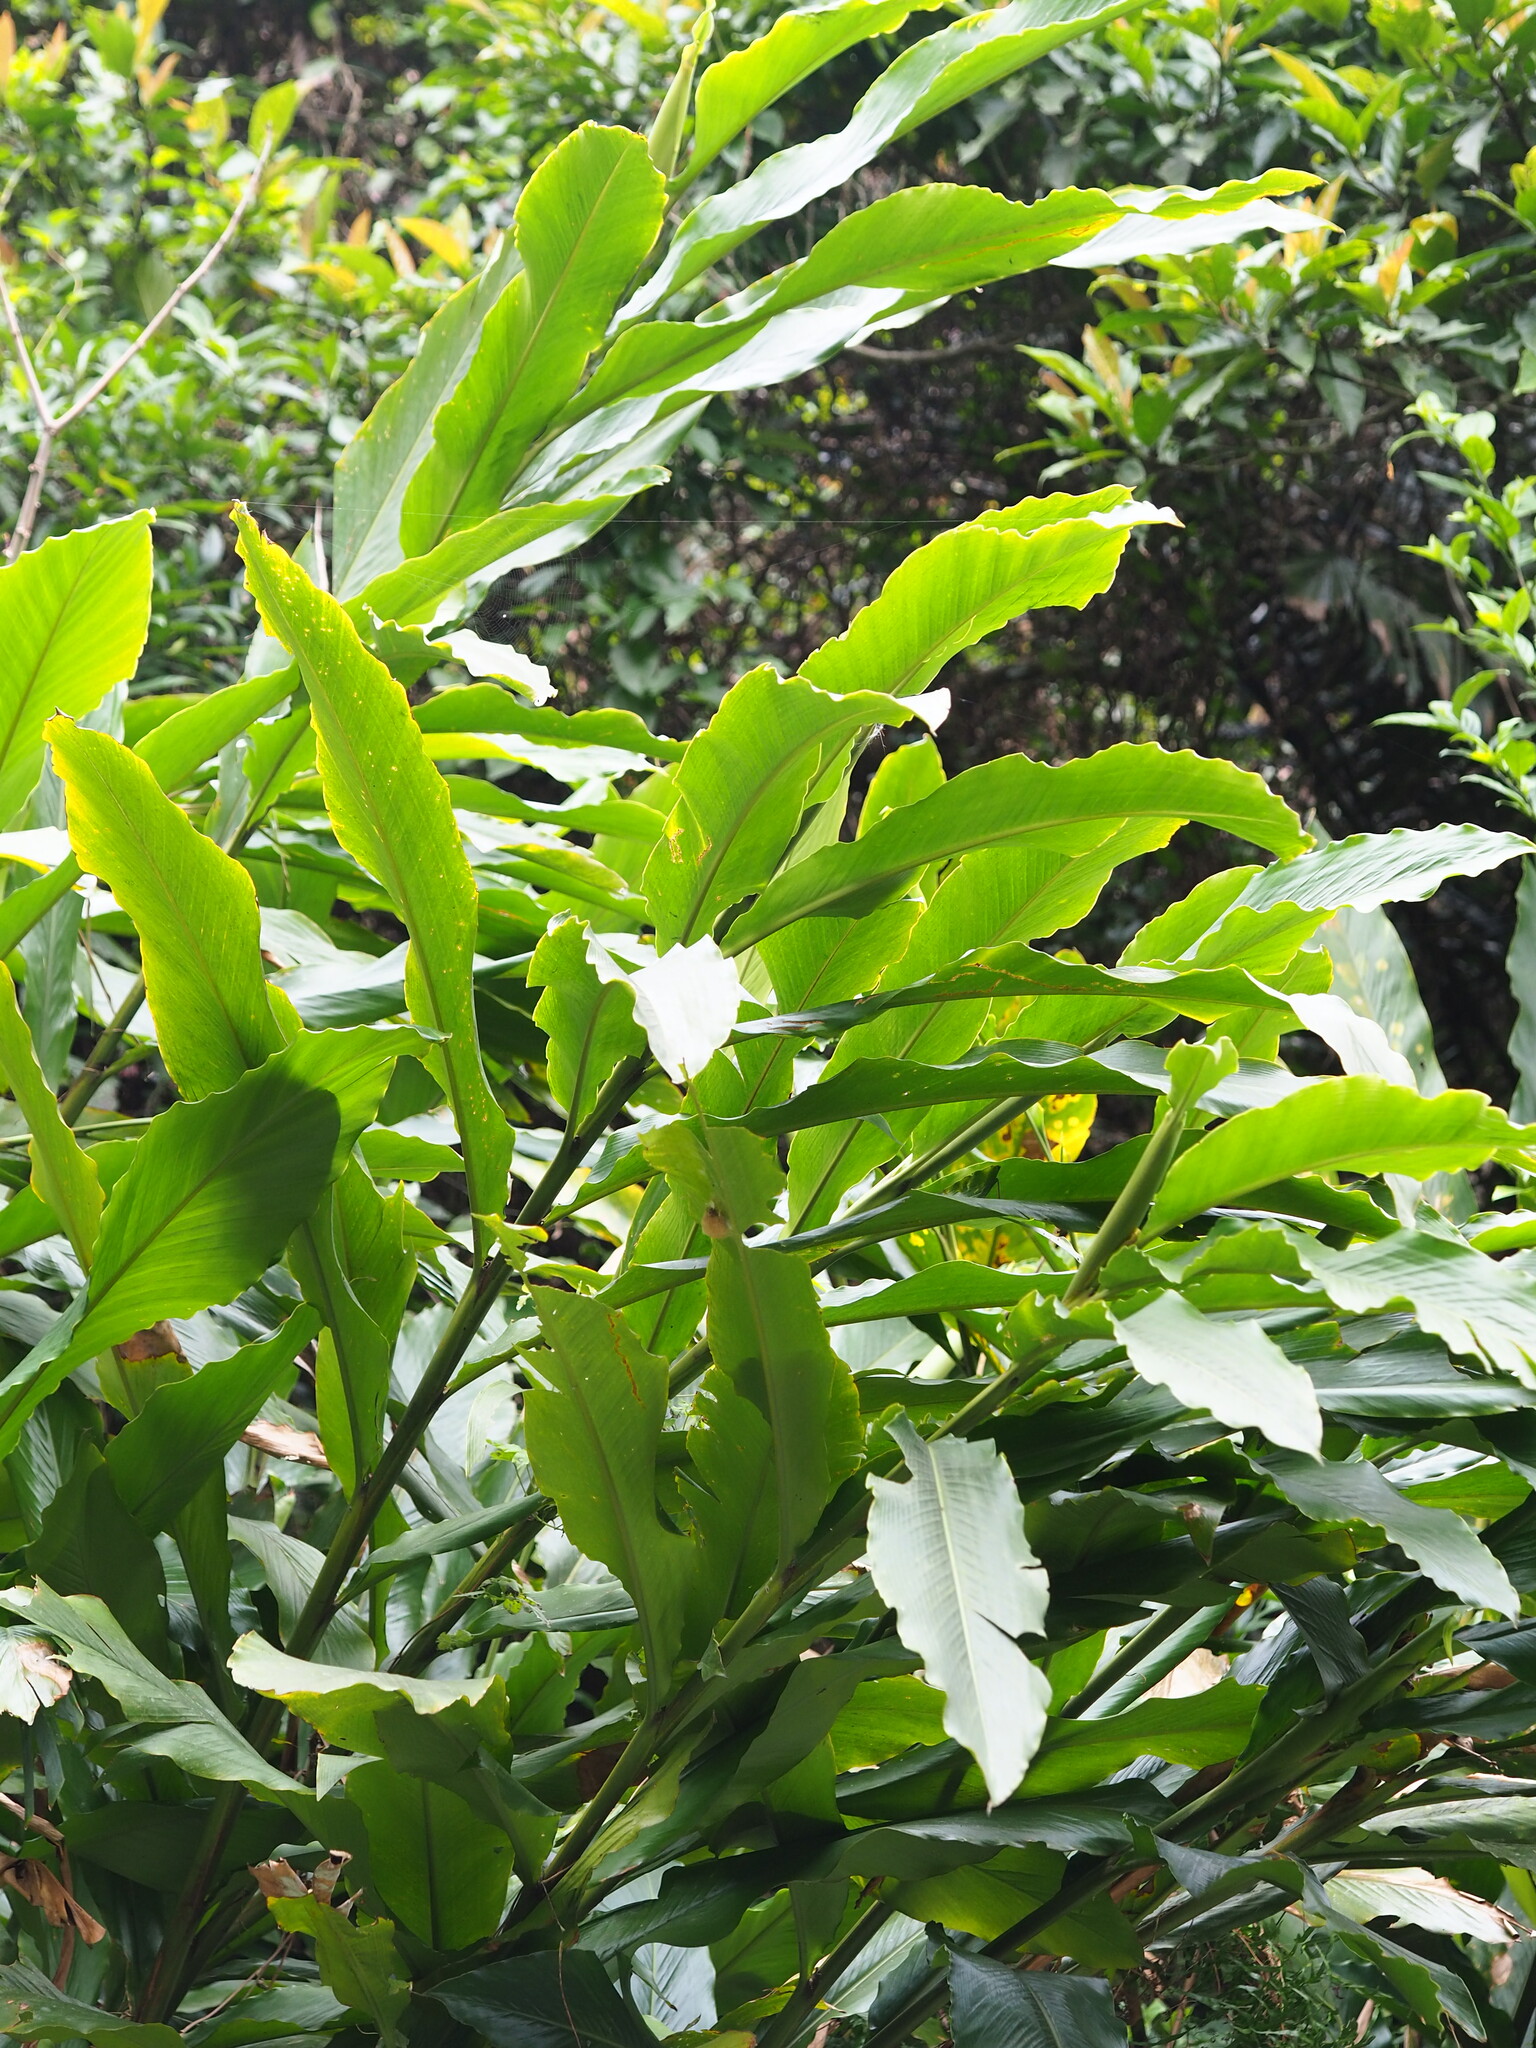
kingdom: Plantae
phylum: Tracheophyta
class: Liliopsida
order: Zingiberales
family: Zingiberaceae
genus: Alpinia
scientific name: Alpinia uraiensis
